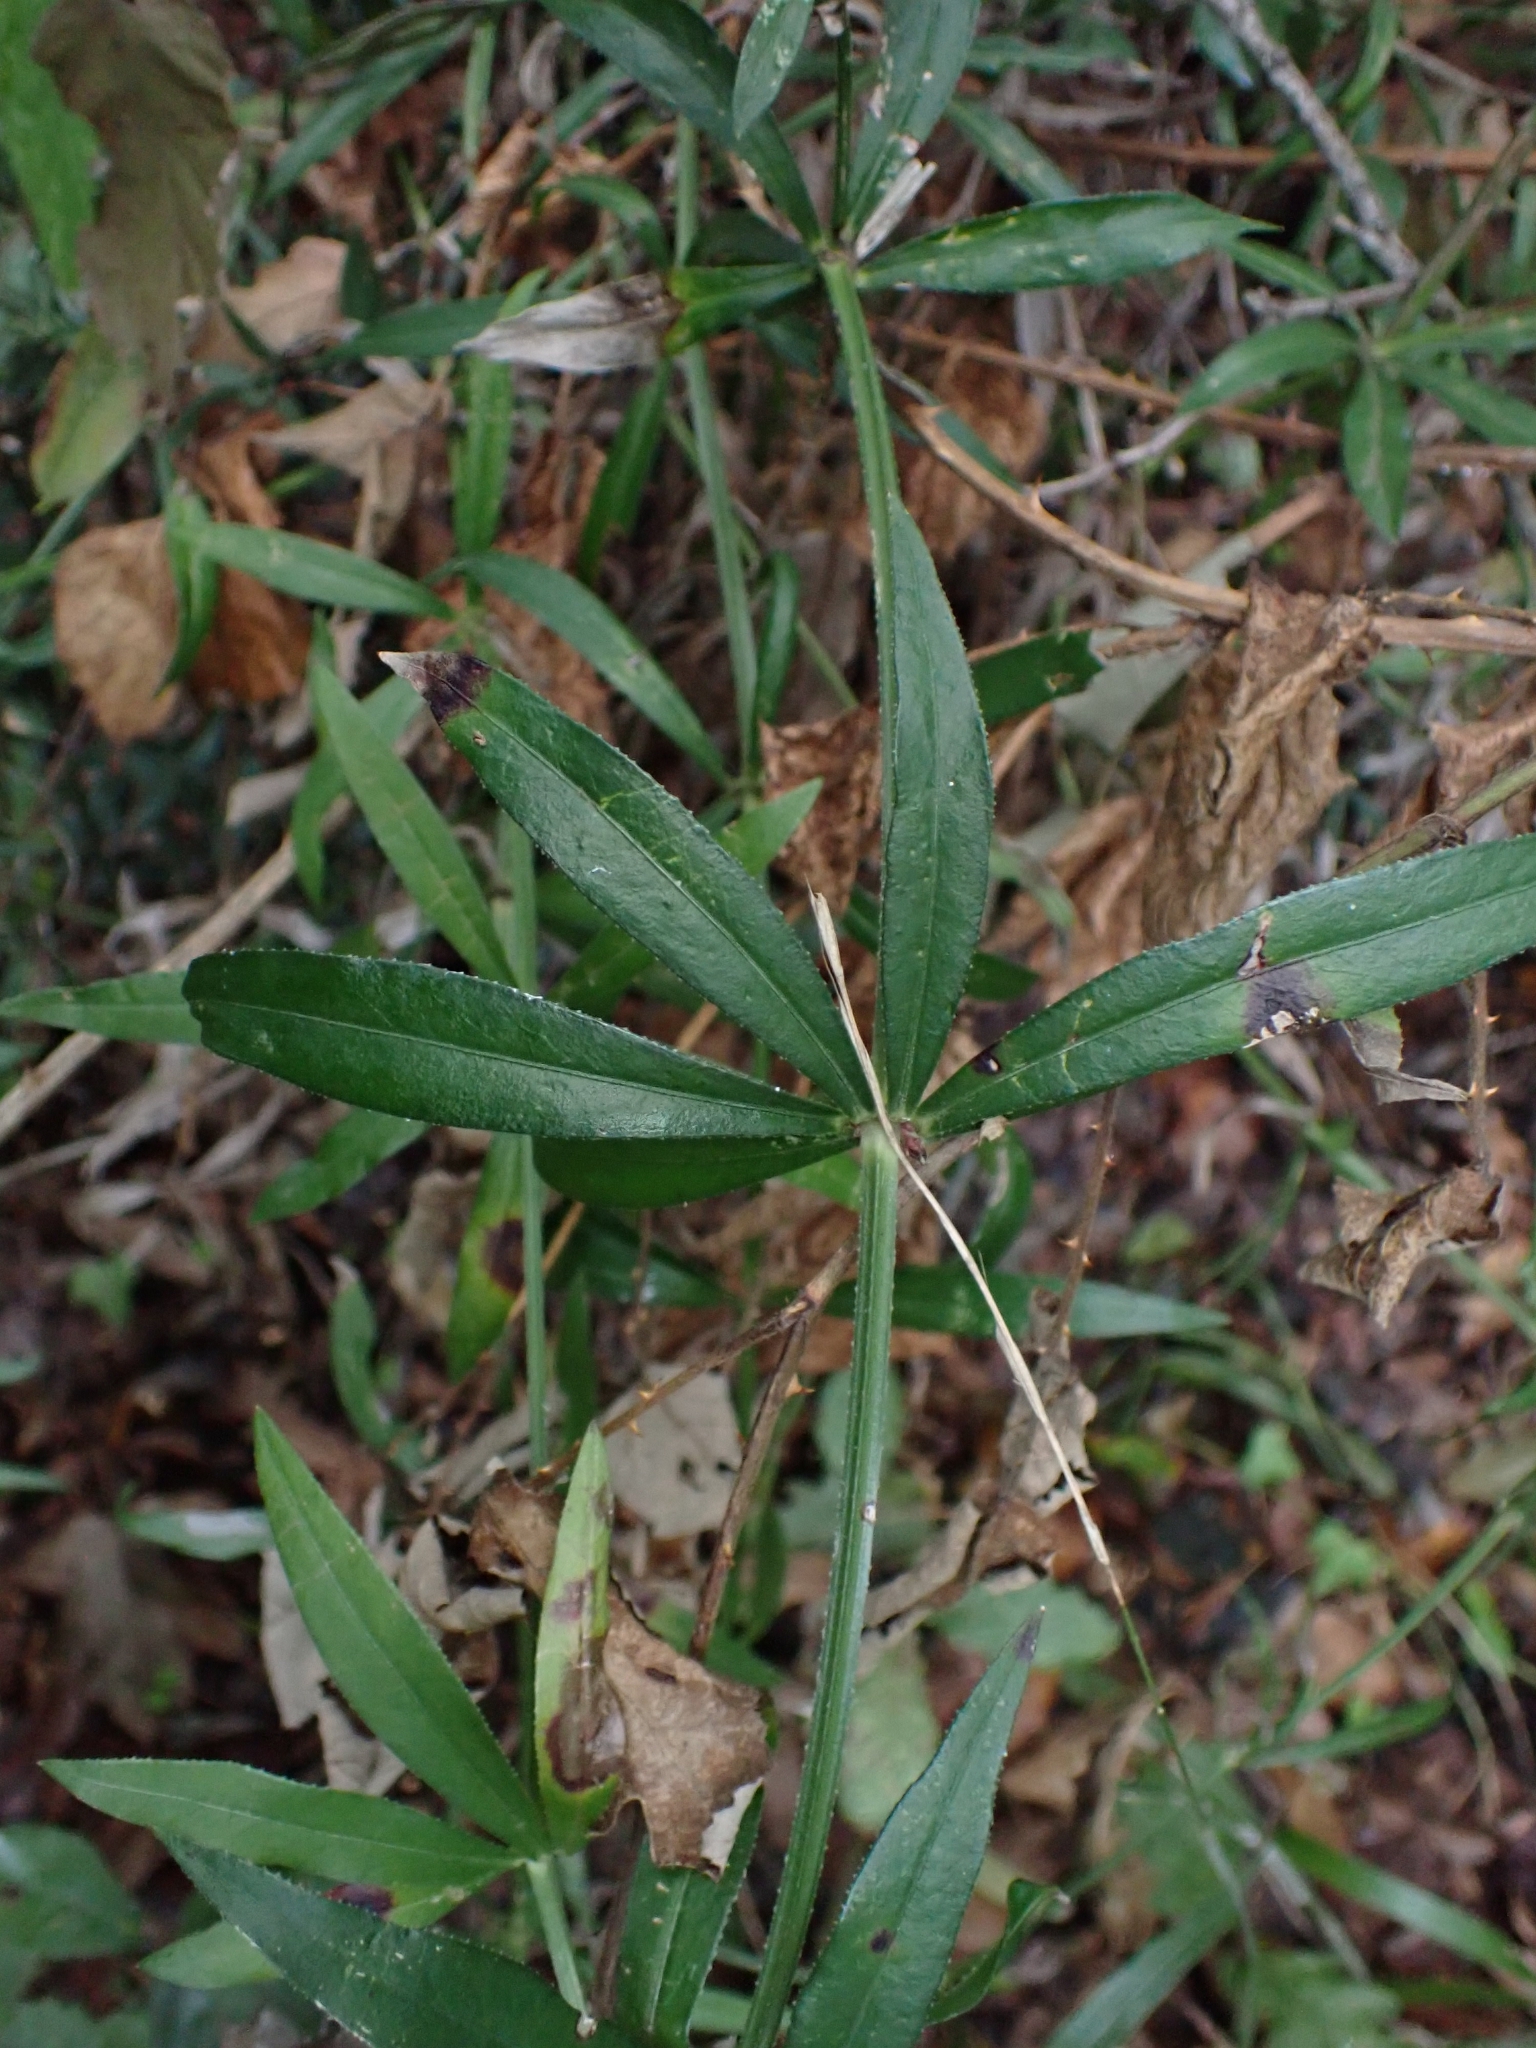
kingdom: Plantae
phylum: Tracheophyta
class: Magnoliopsida
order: Gentianales
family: Rubiaceae
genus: Rubia
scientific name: Rubia peregrina
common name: Wild madder
